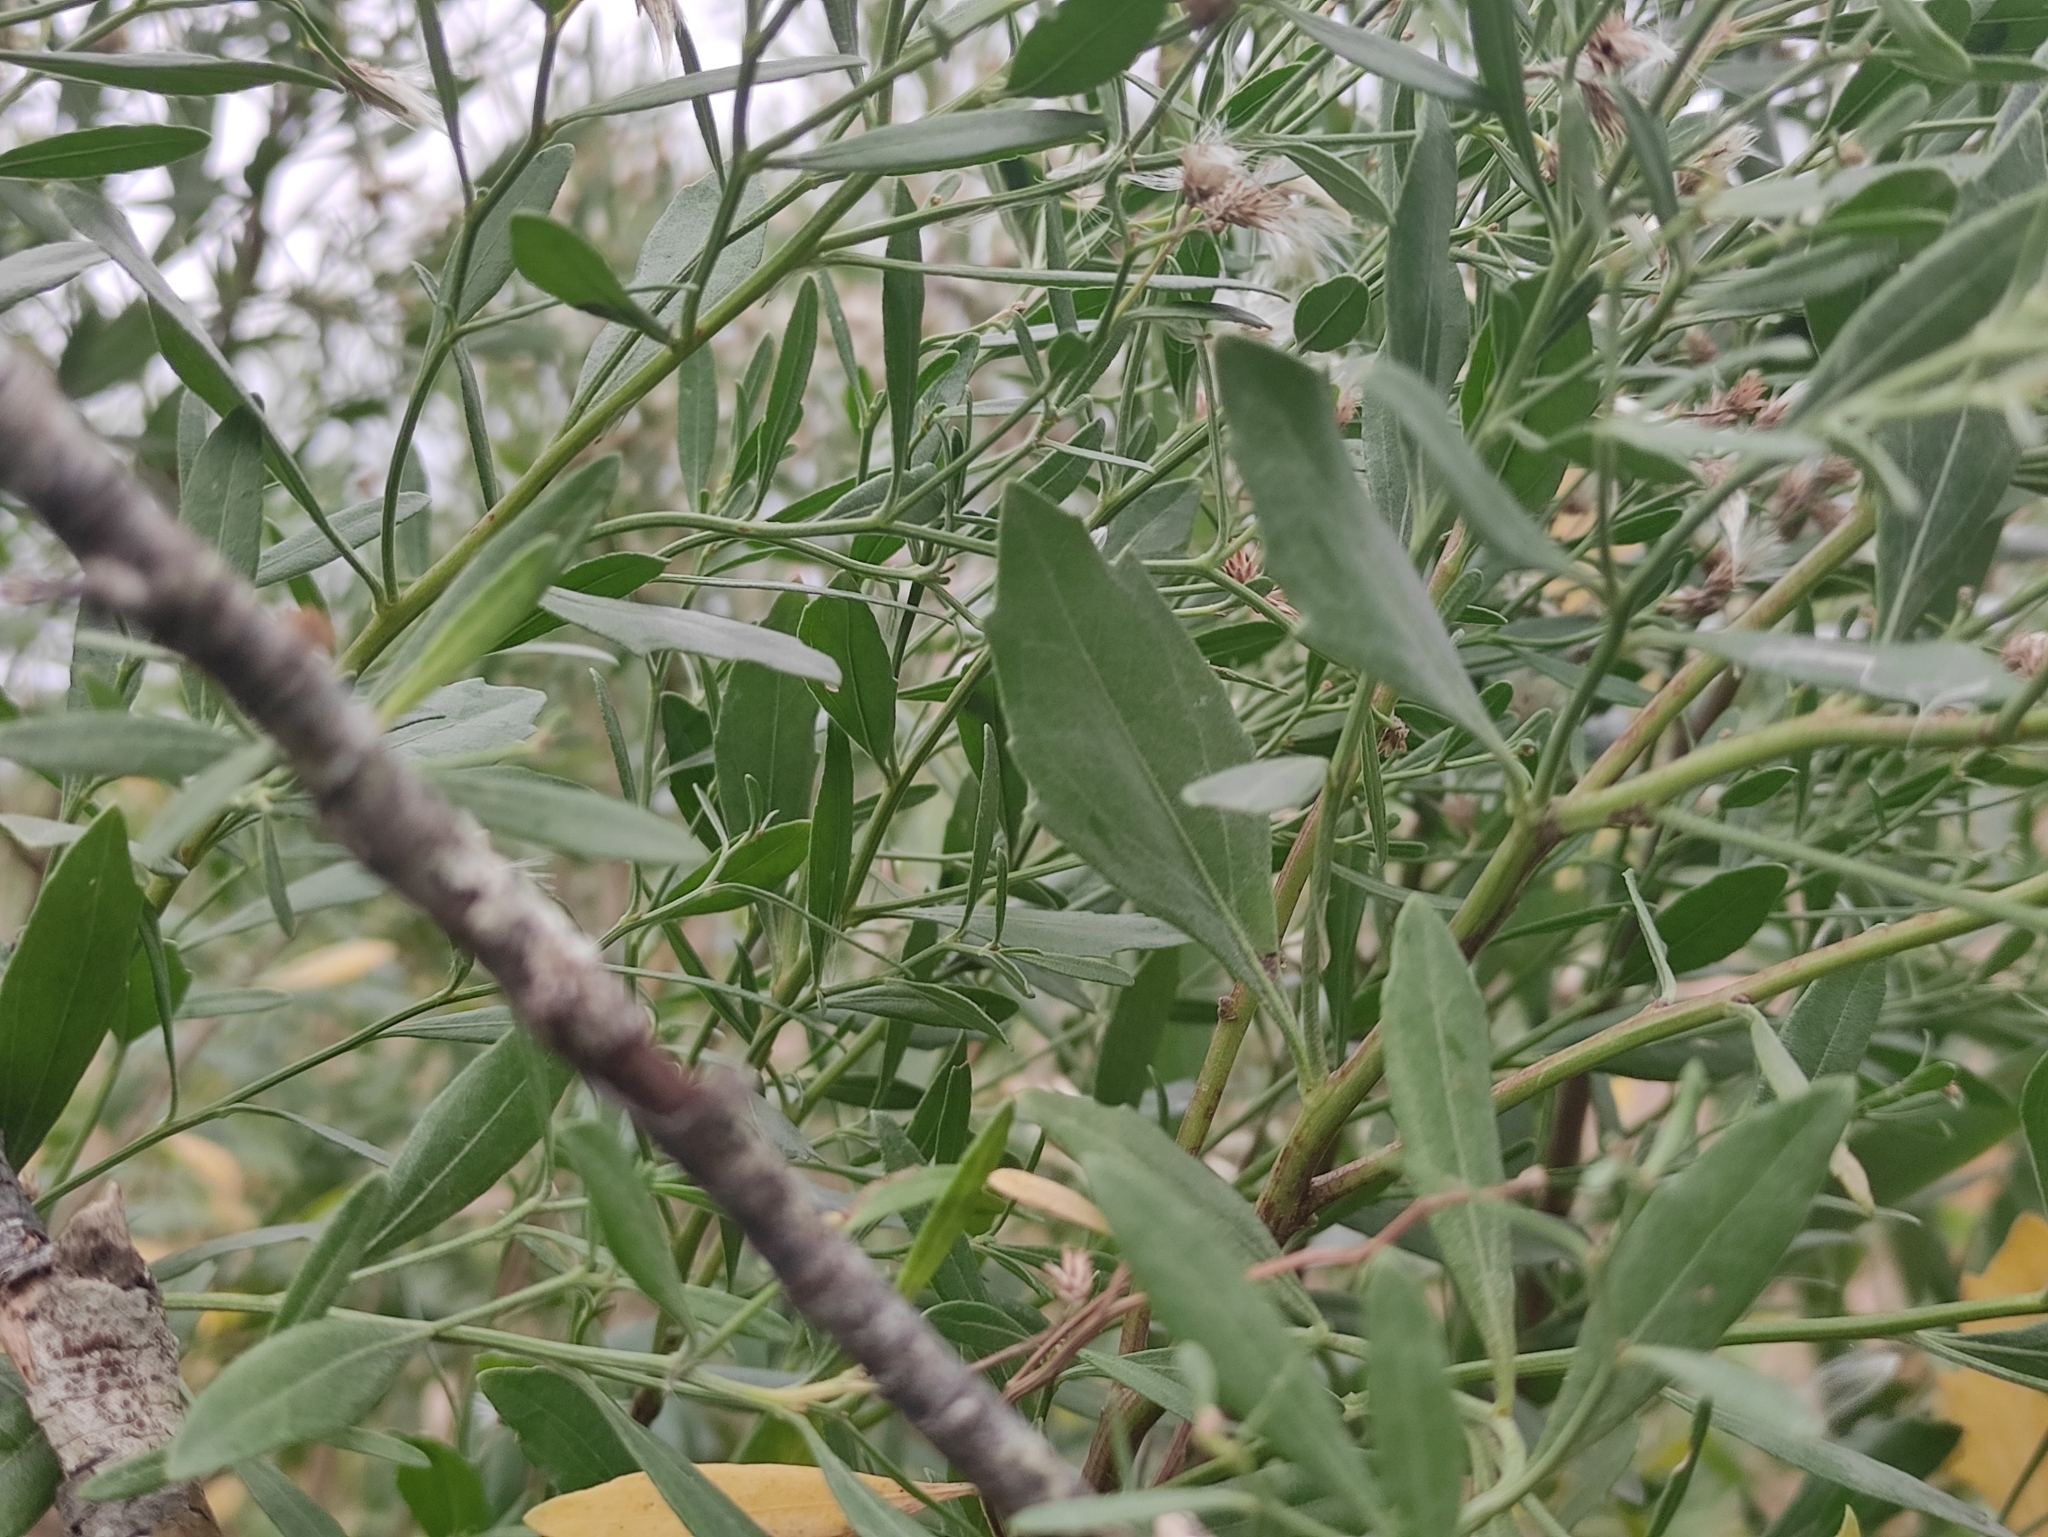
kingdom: Plantae
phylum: Tracheophyta
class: Magnoliopsida
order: Asterales
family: Asteraceae
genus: Baccharis
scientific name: Baccharis halimifolia
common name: Eastern baccharis
